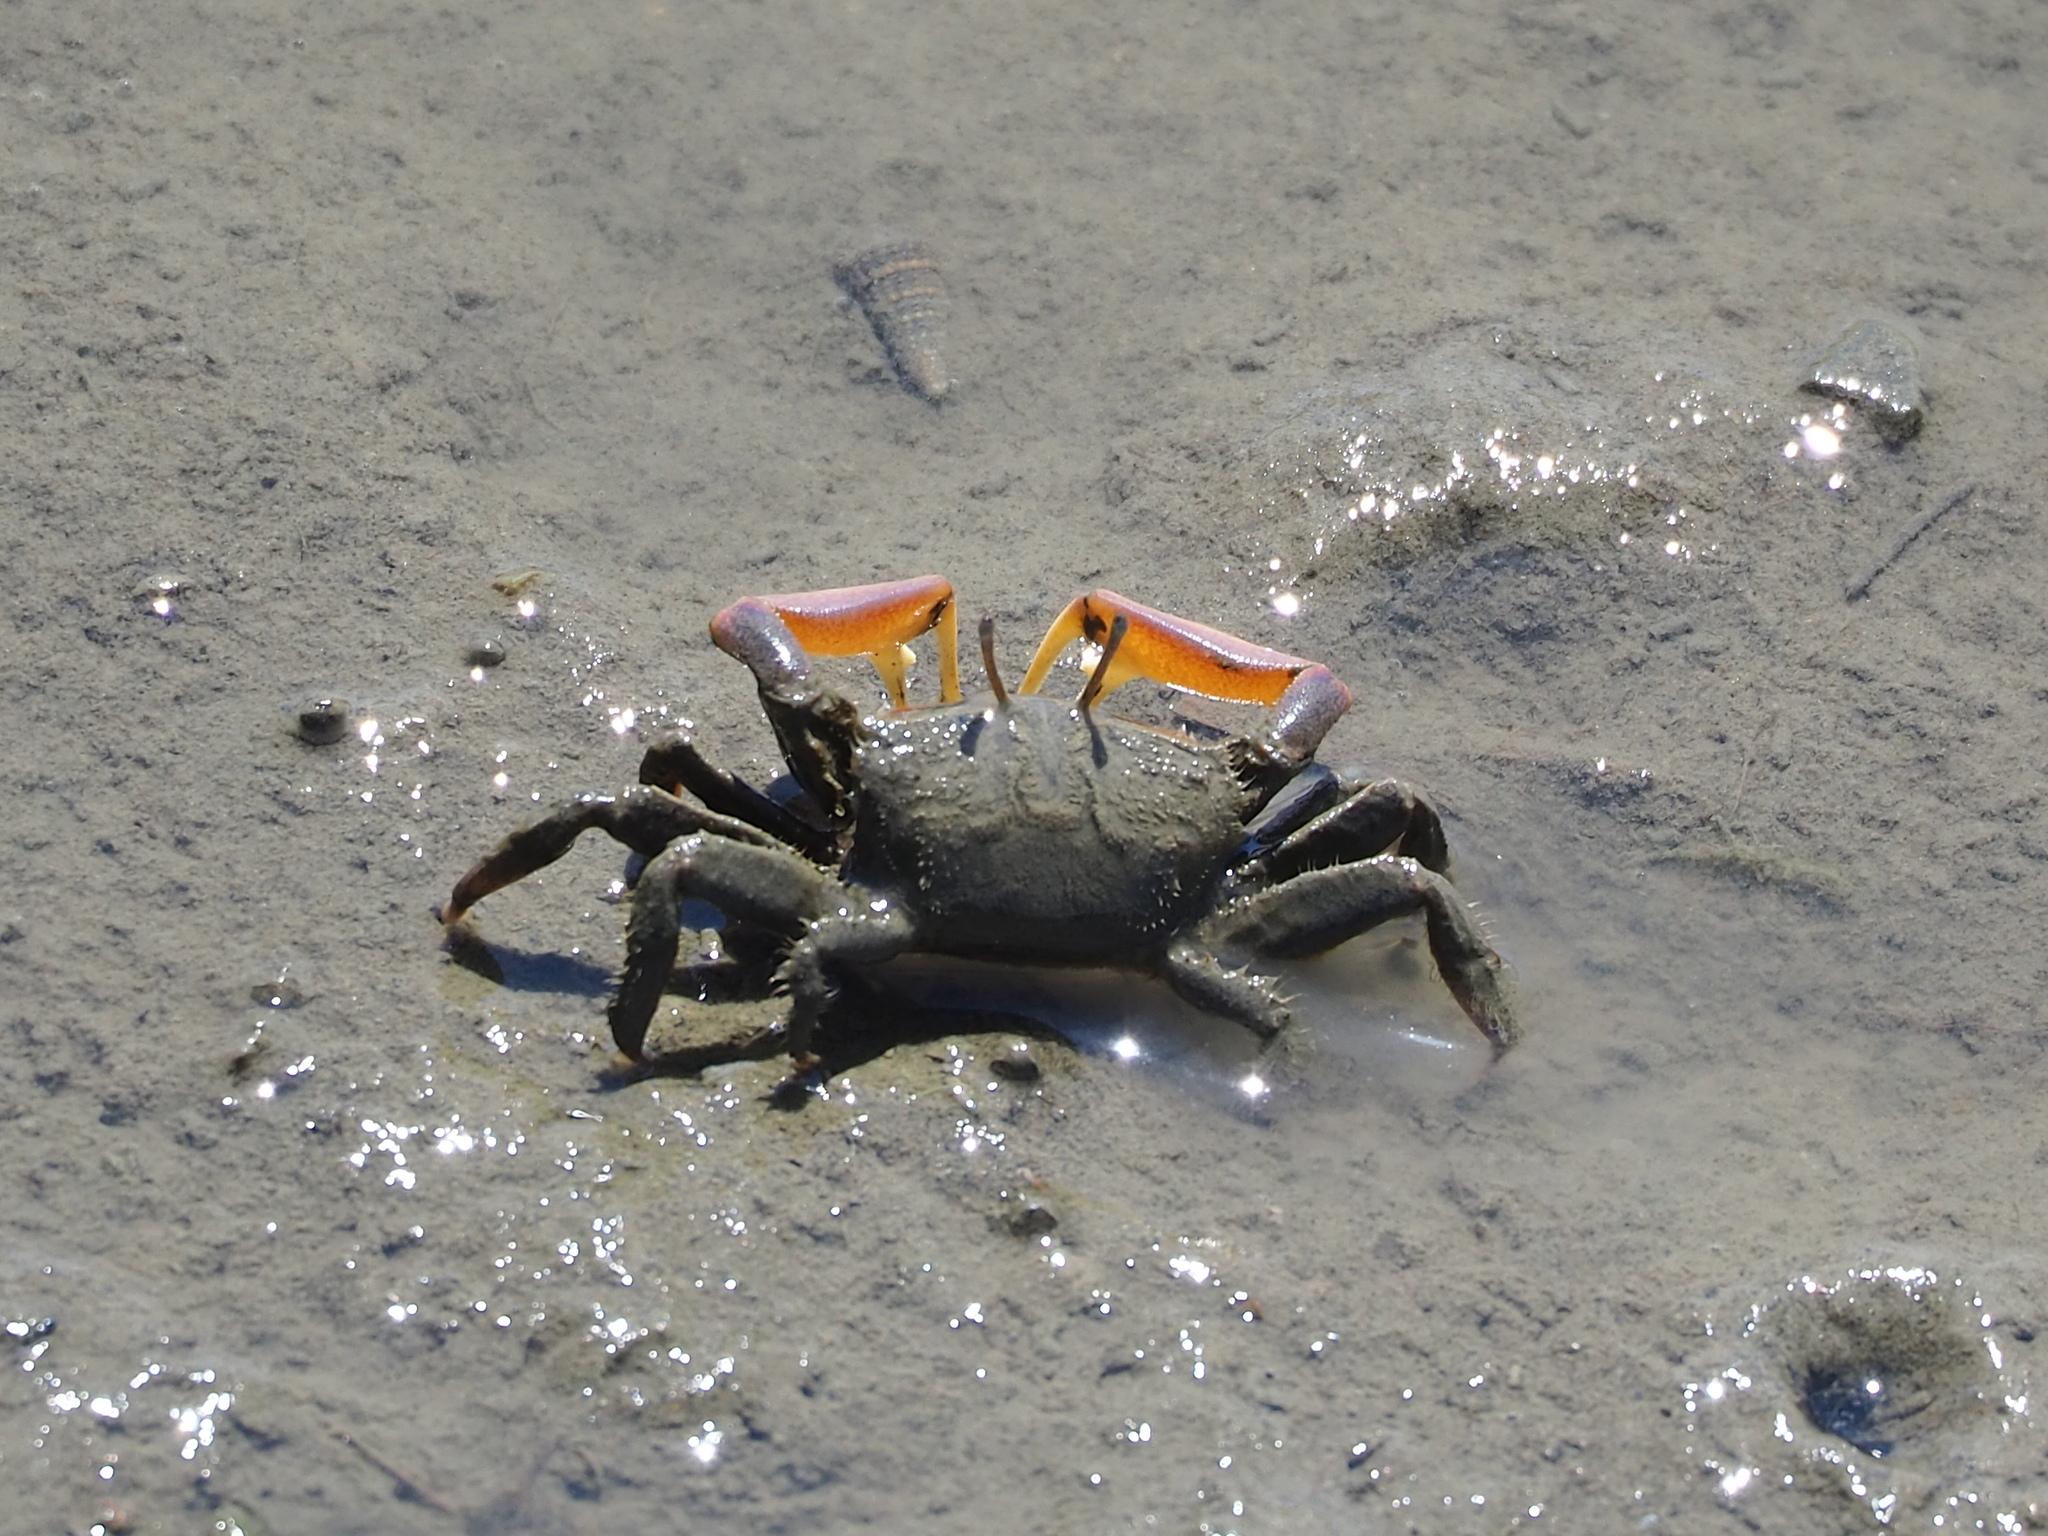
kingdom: Animalia
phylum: Arthropoda
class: Malacostraca
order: Decapoda
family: Macrophthalmidae
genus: Macrophthalmus
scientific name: Macrophthalmus banzai
